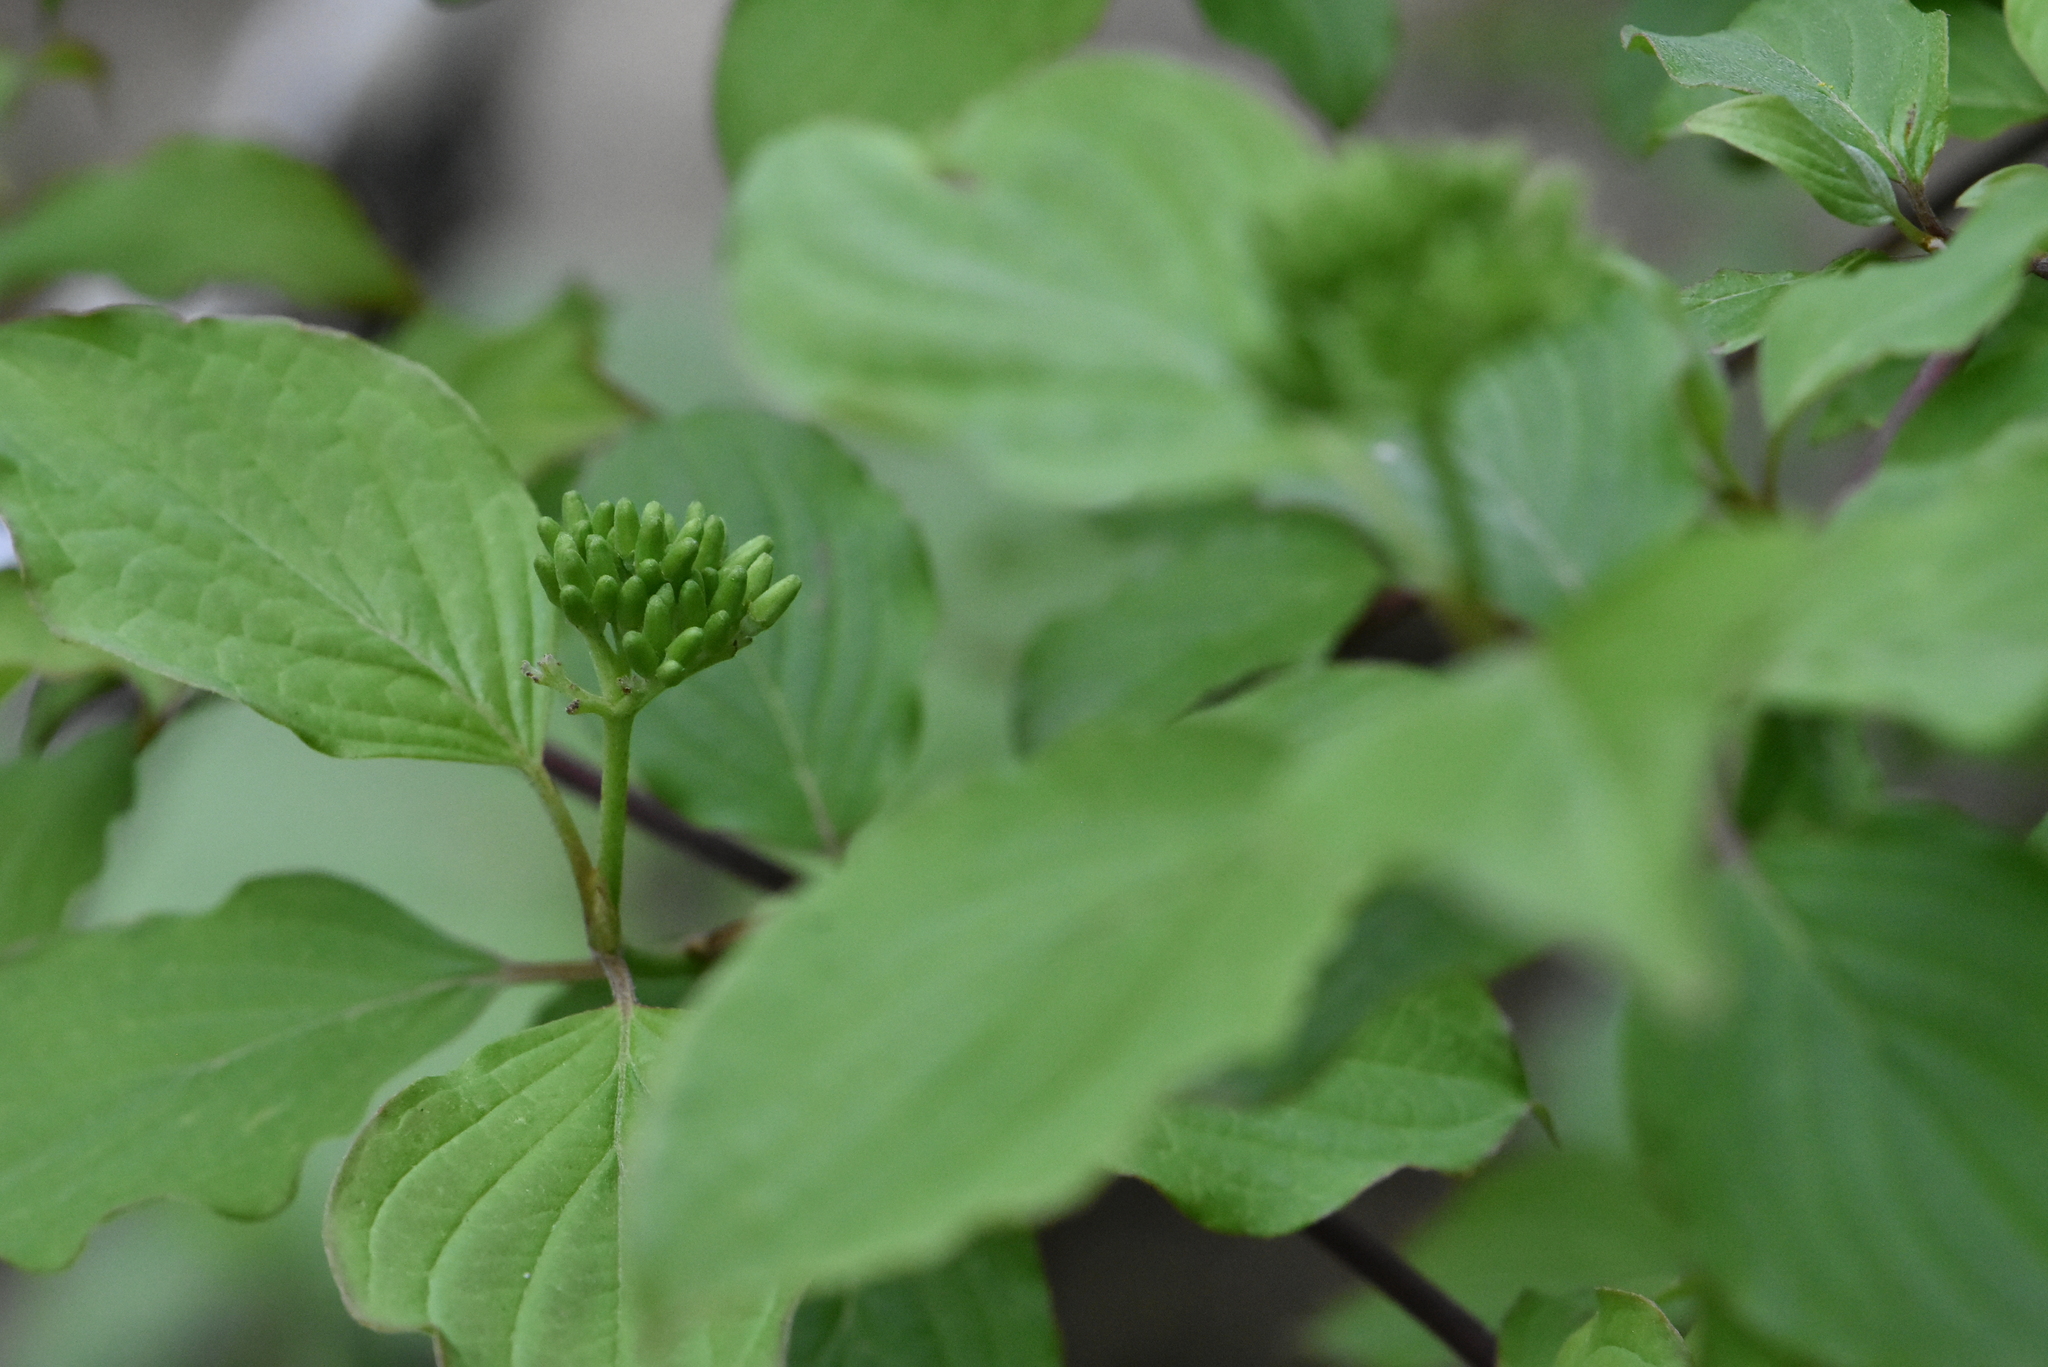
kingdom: Plantae
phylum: Tracheophyta
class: Magnoliopsida
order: Cornales
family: Cornaceae
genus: Cornus
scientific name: Cornus sanguinea
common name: Dogwood
